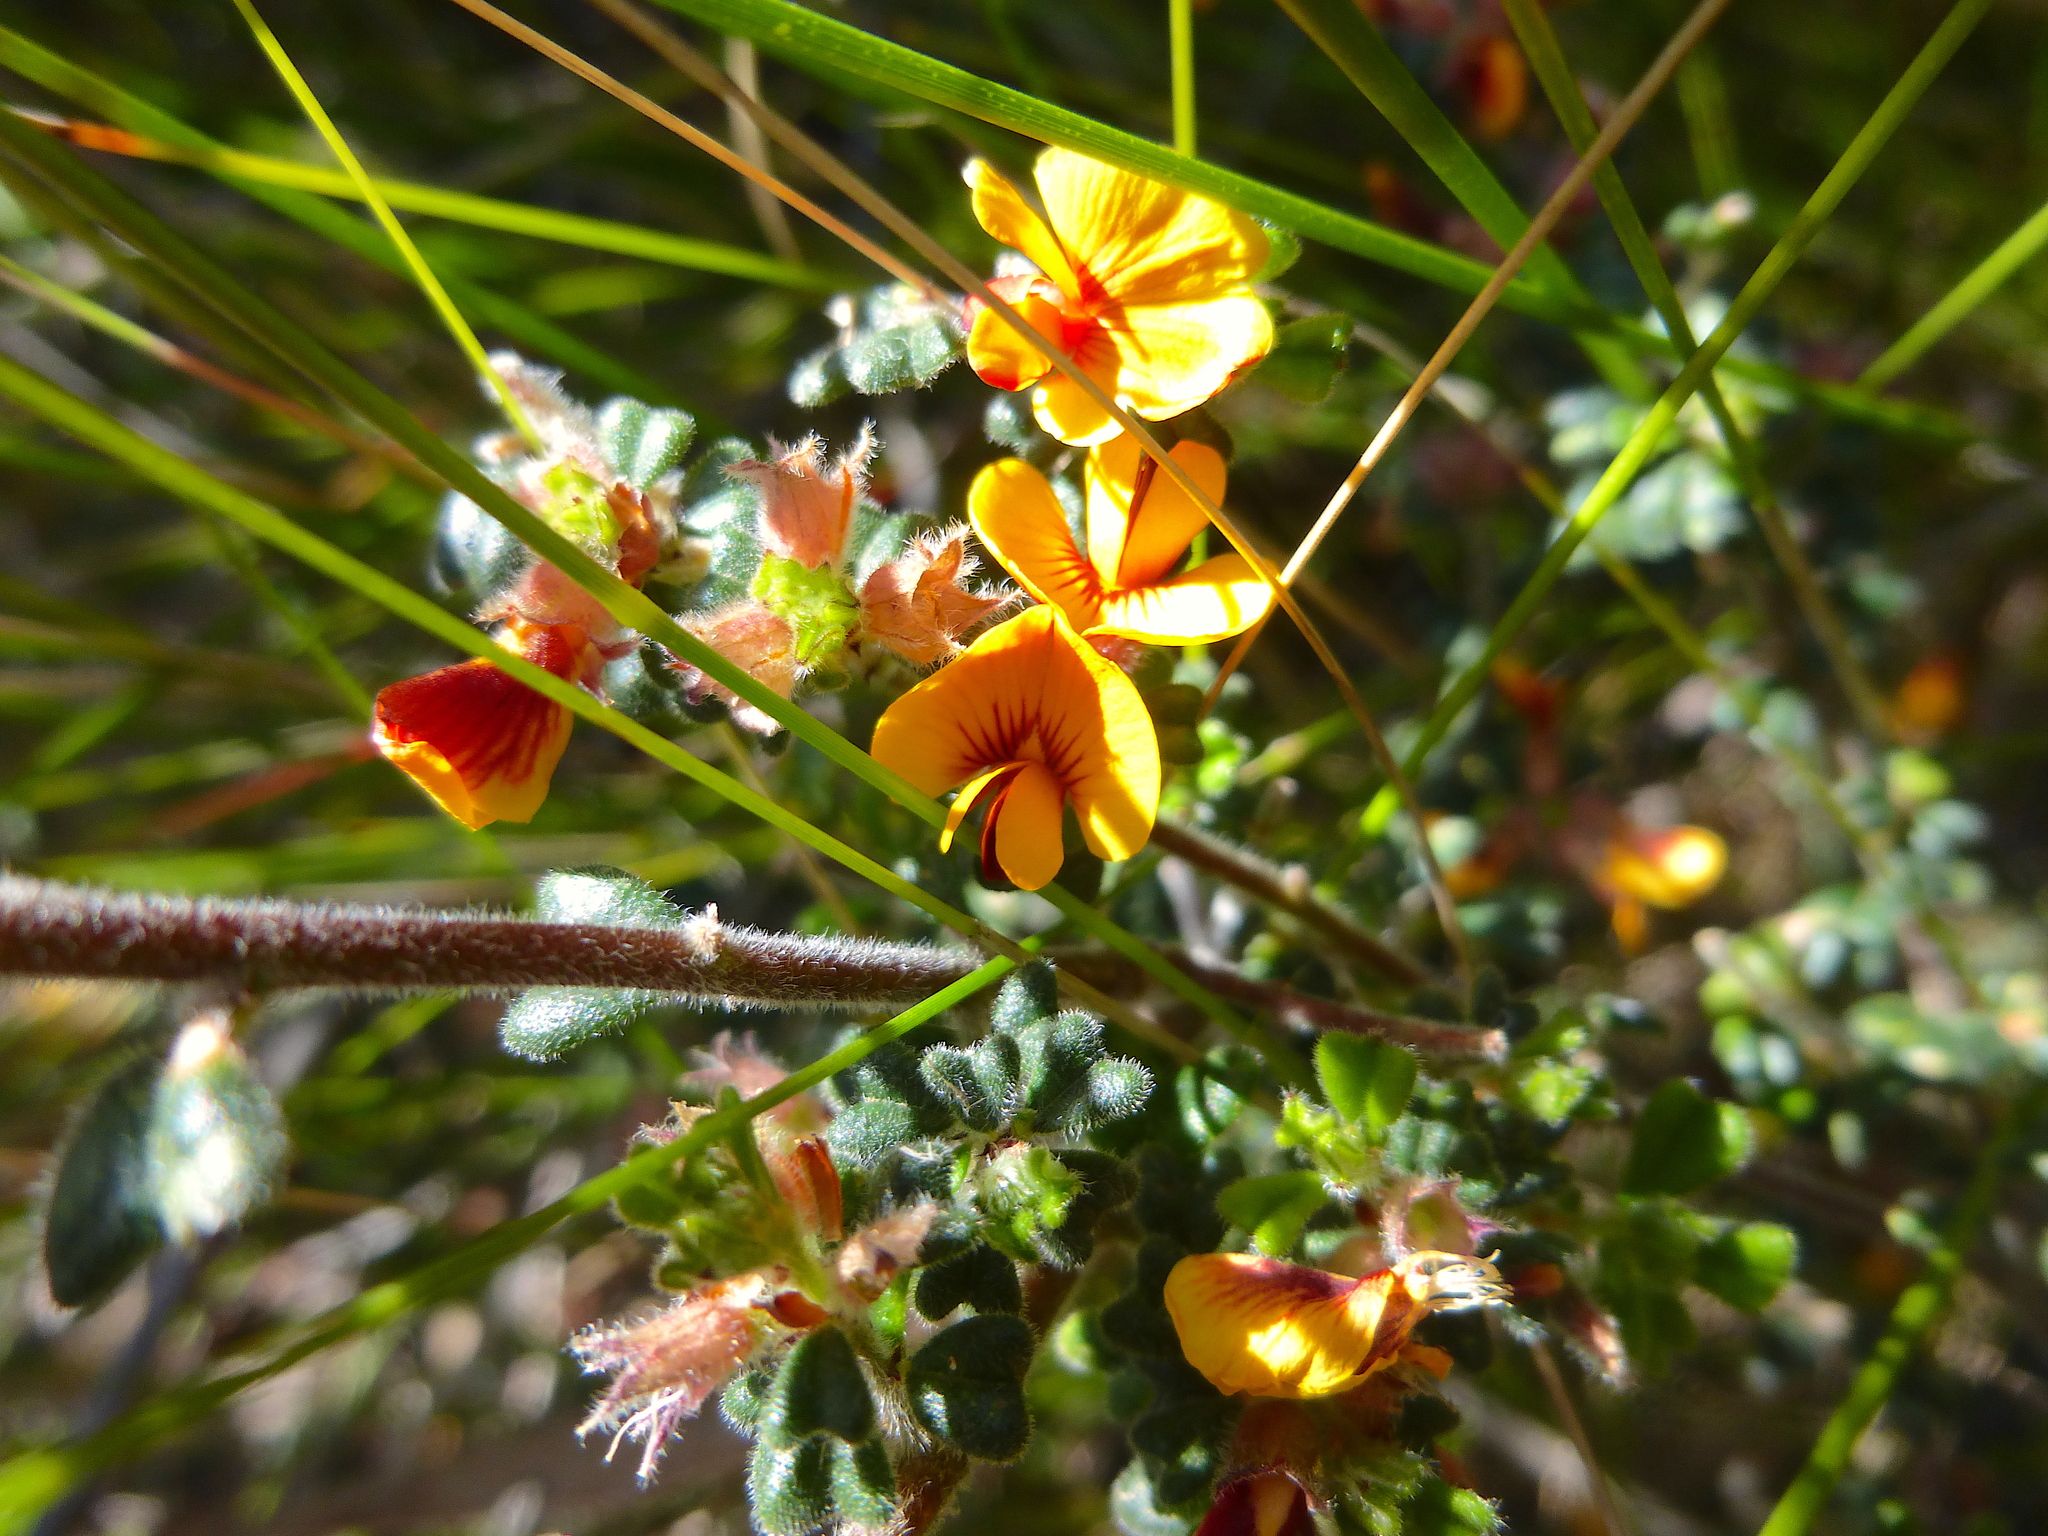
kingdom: Plantae
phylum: Tracheophyta
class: Magnoliopsida
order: Fabales
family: Fabaceae
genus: Pultenaea
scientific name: Pultenaea scabra
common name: Rough bush-pea
